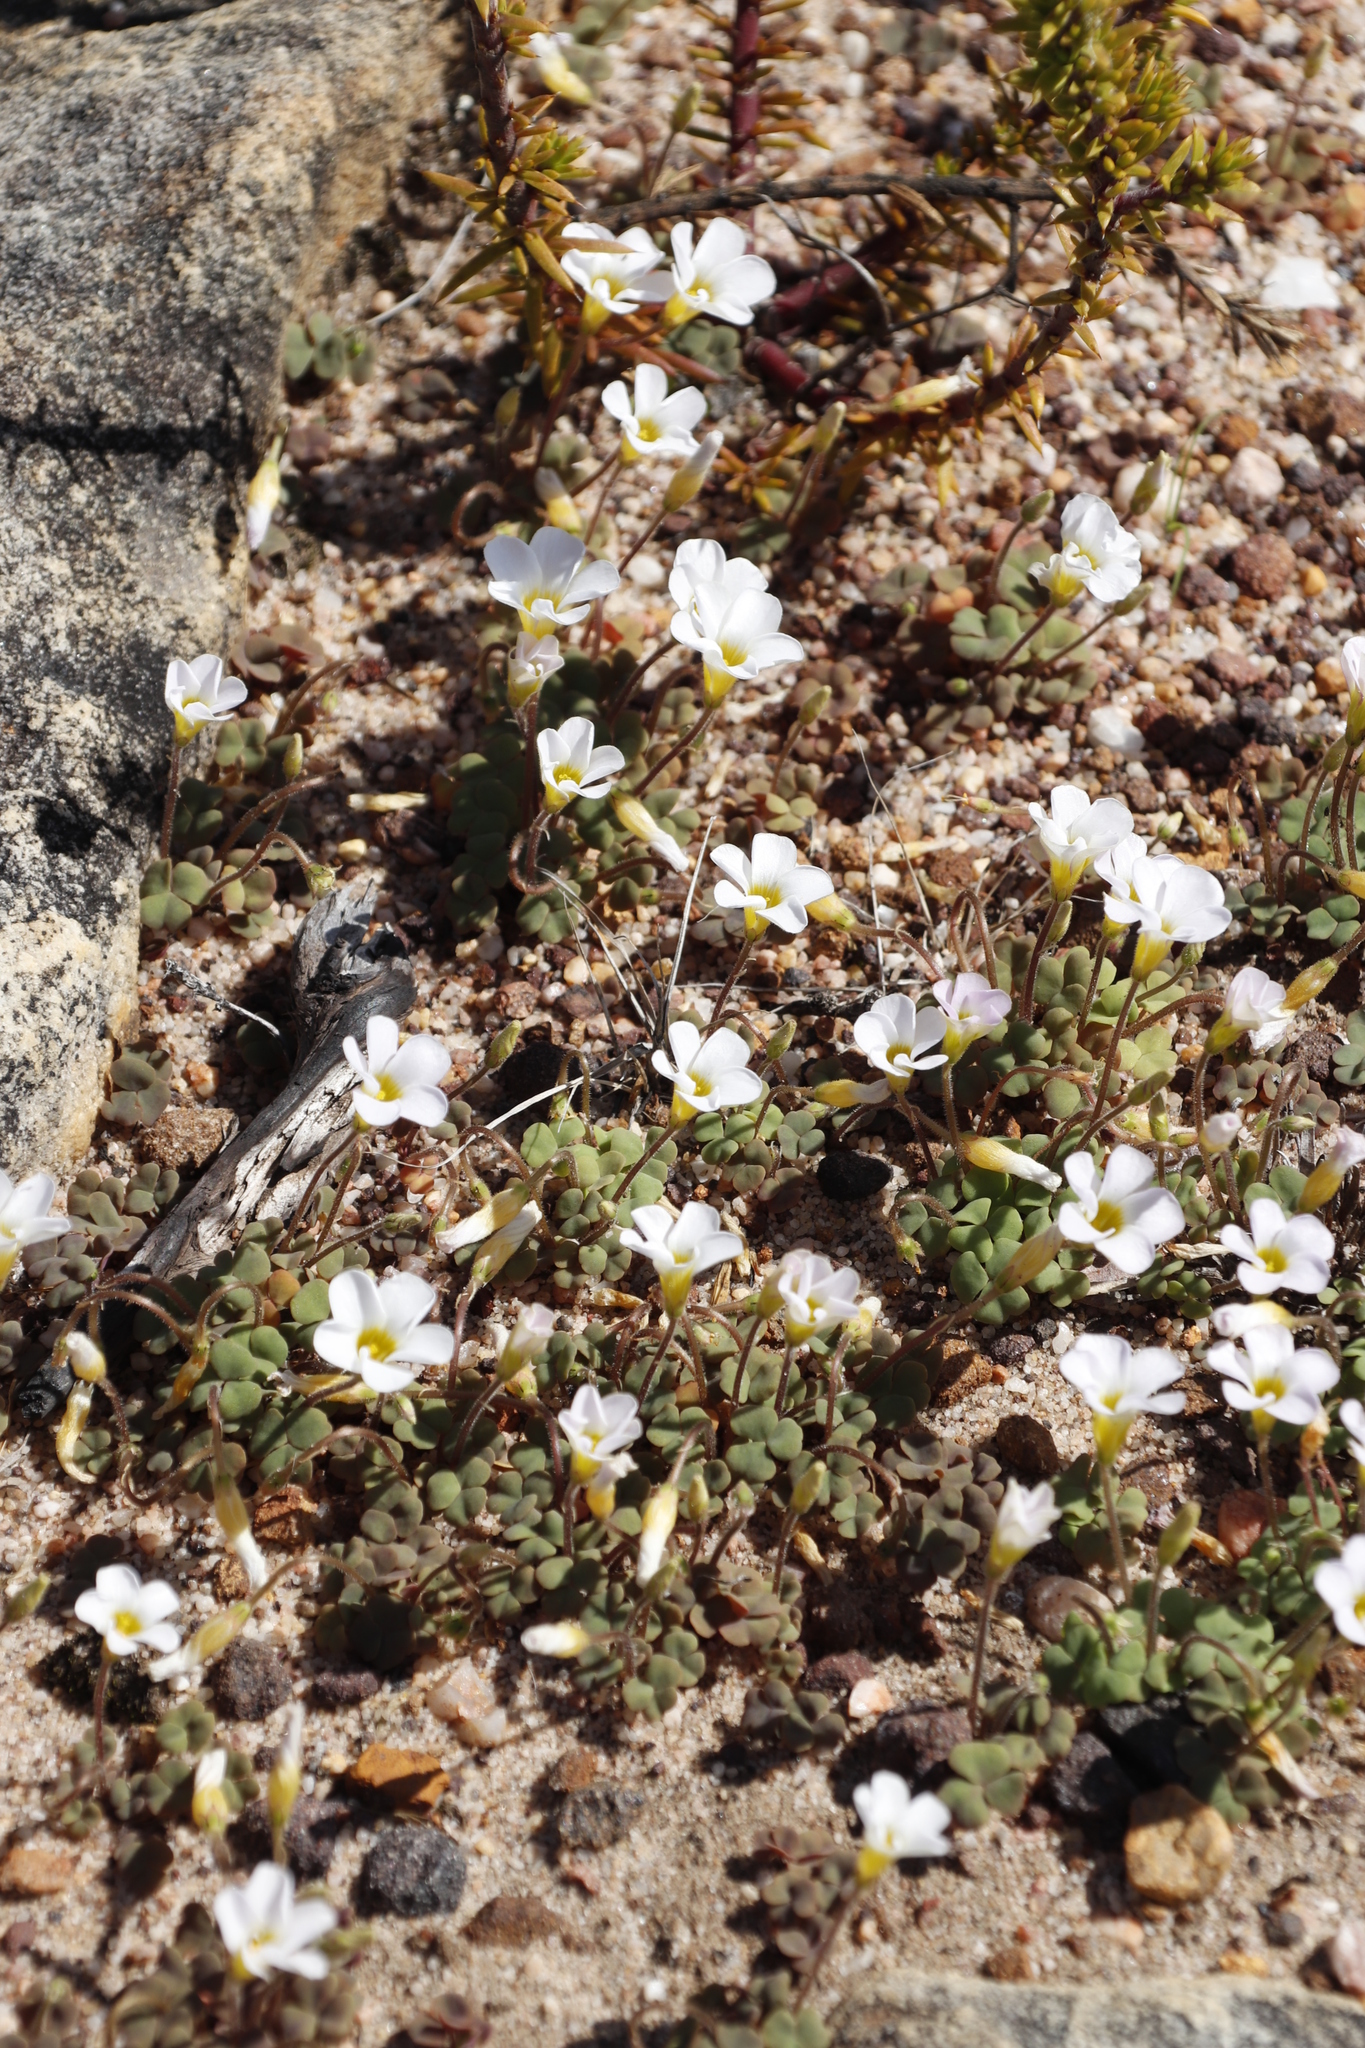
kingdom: Plantae
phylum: Tracheophyta
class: Magnoliopsida
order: Oxalidales
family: Oxalidaceae
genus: Oxalis
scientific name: Oxalis punctata
